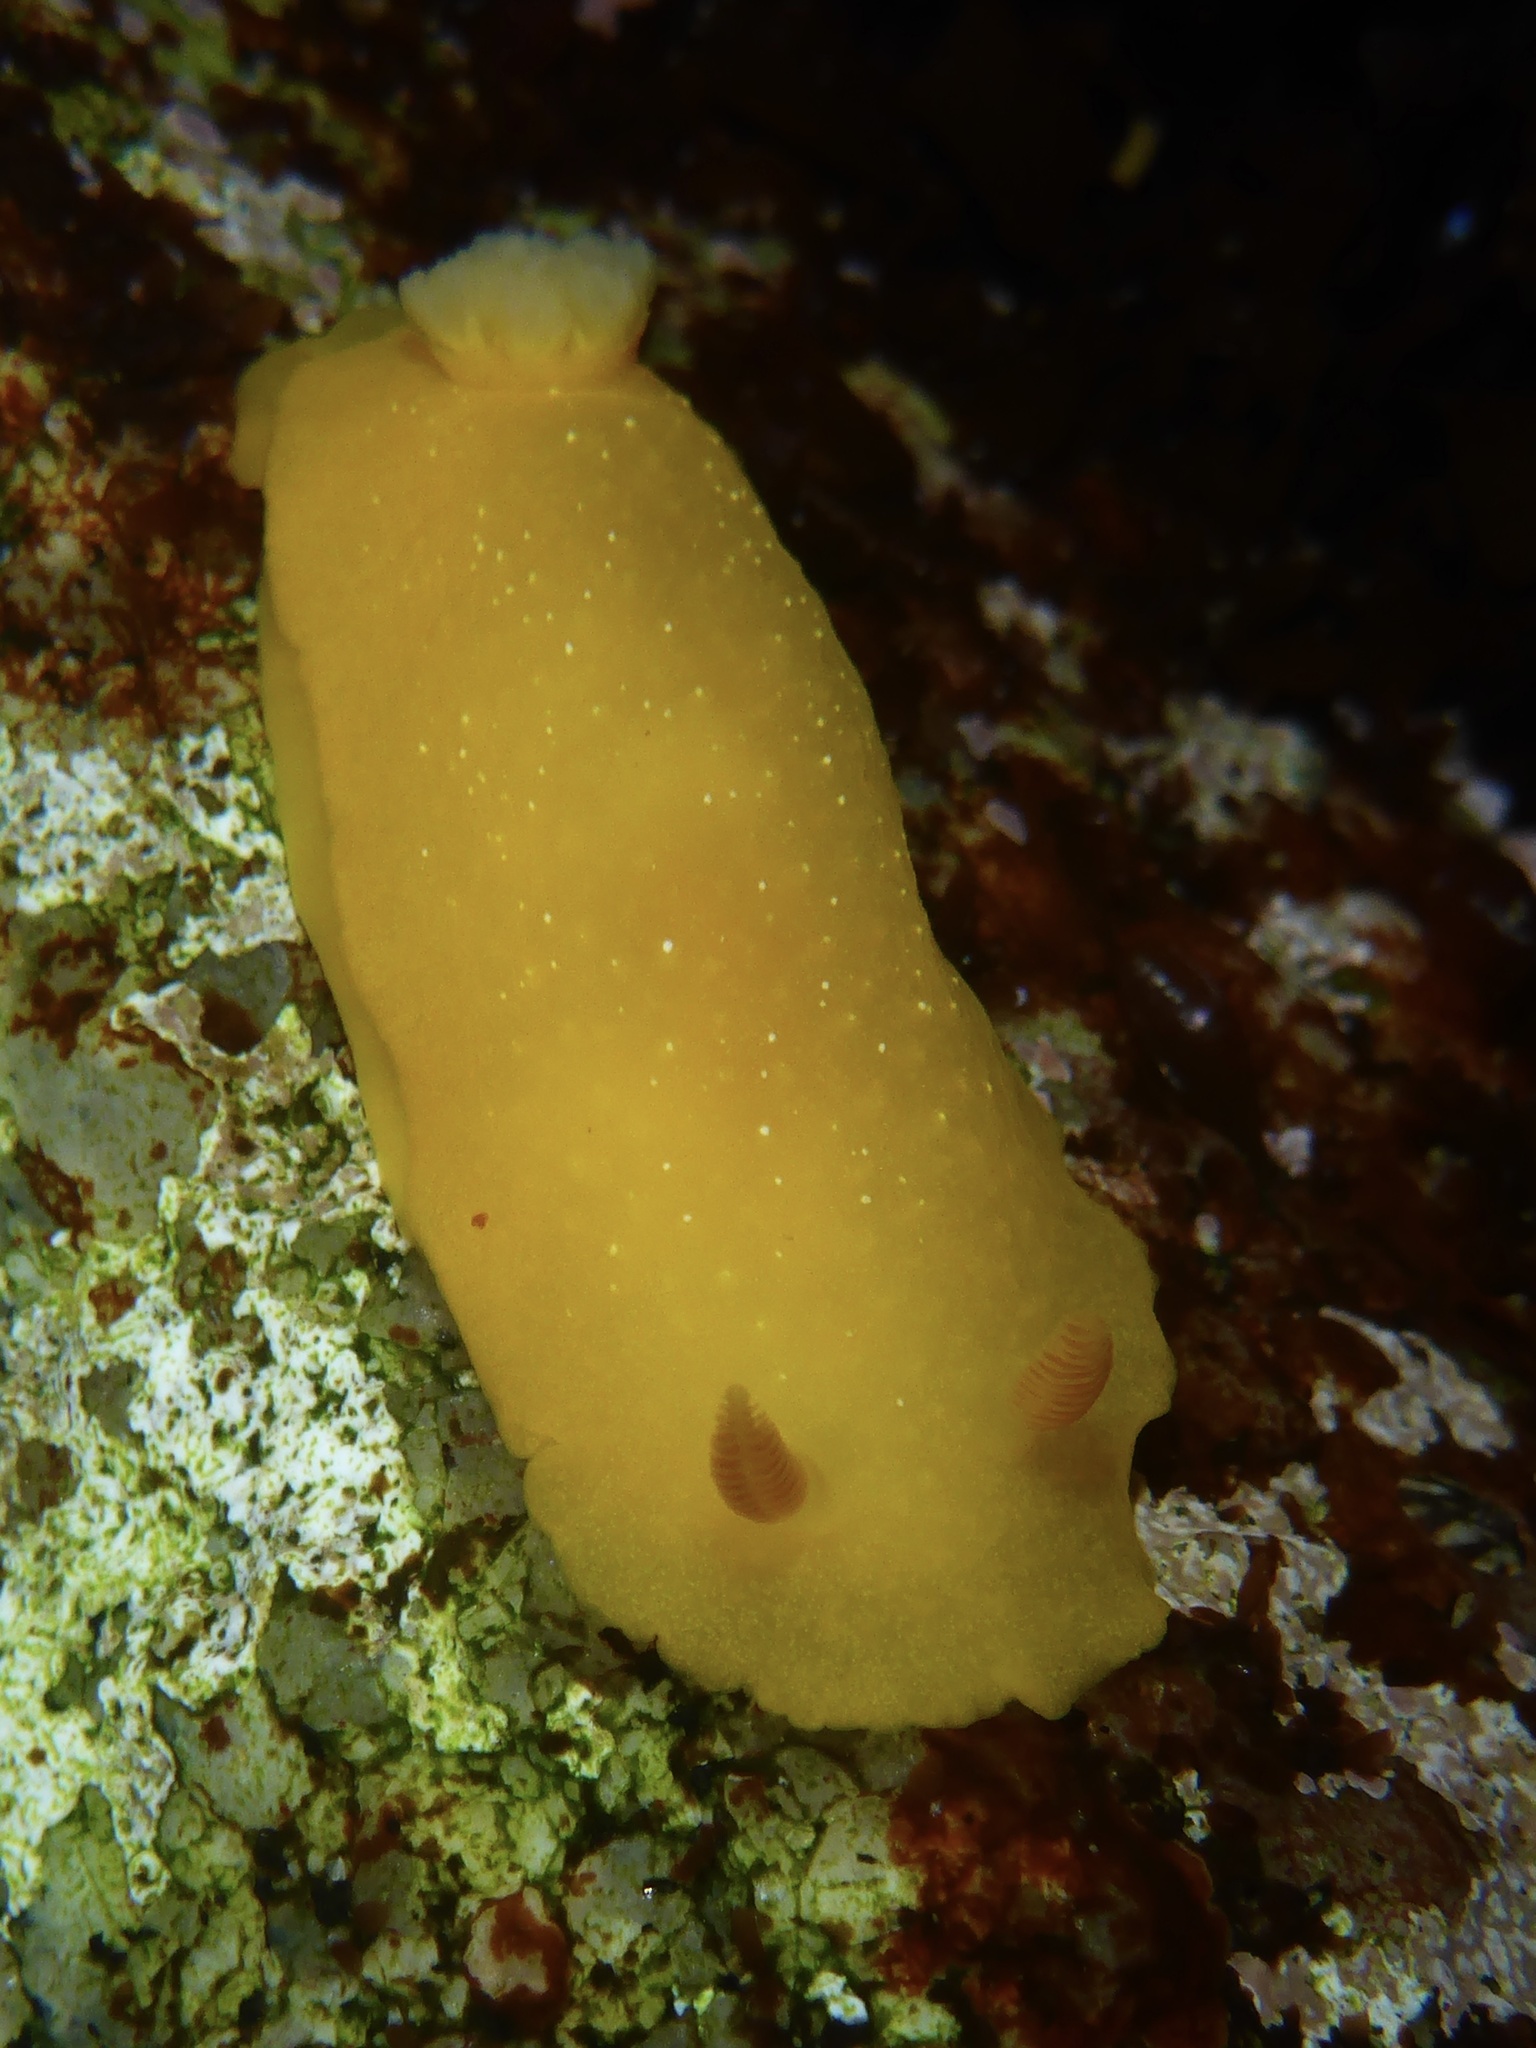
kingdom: Animalia
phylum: Mollusca
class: Gastropoda
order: Nudibranchia
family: Dendrodorididae
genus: Doriopsilla
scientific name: Doriopsilla fulva
